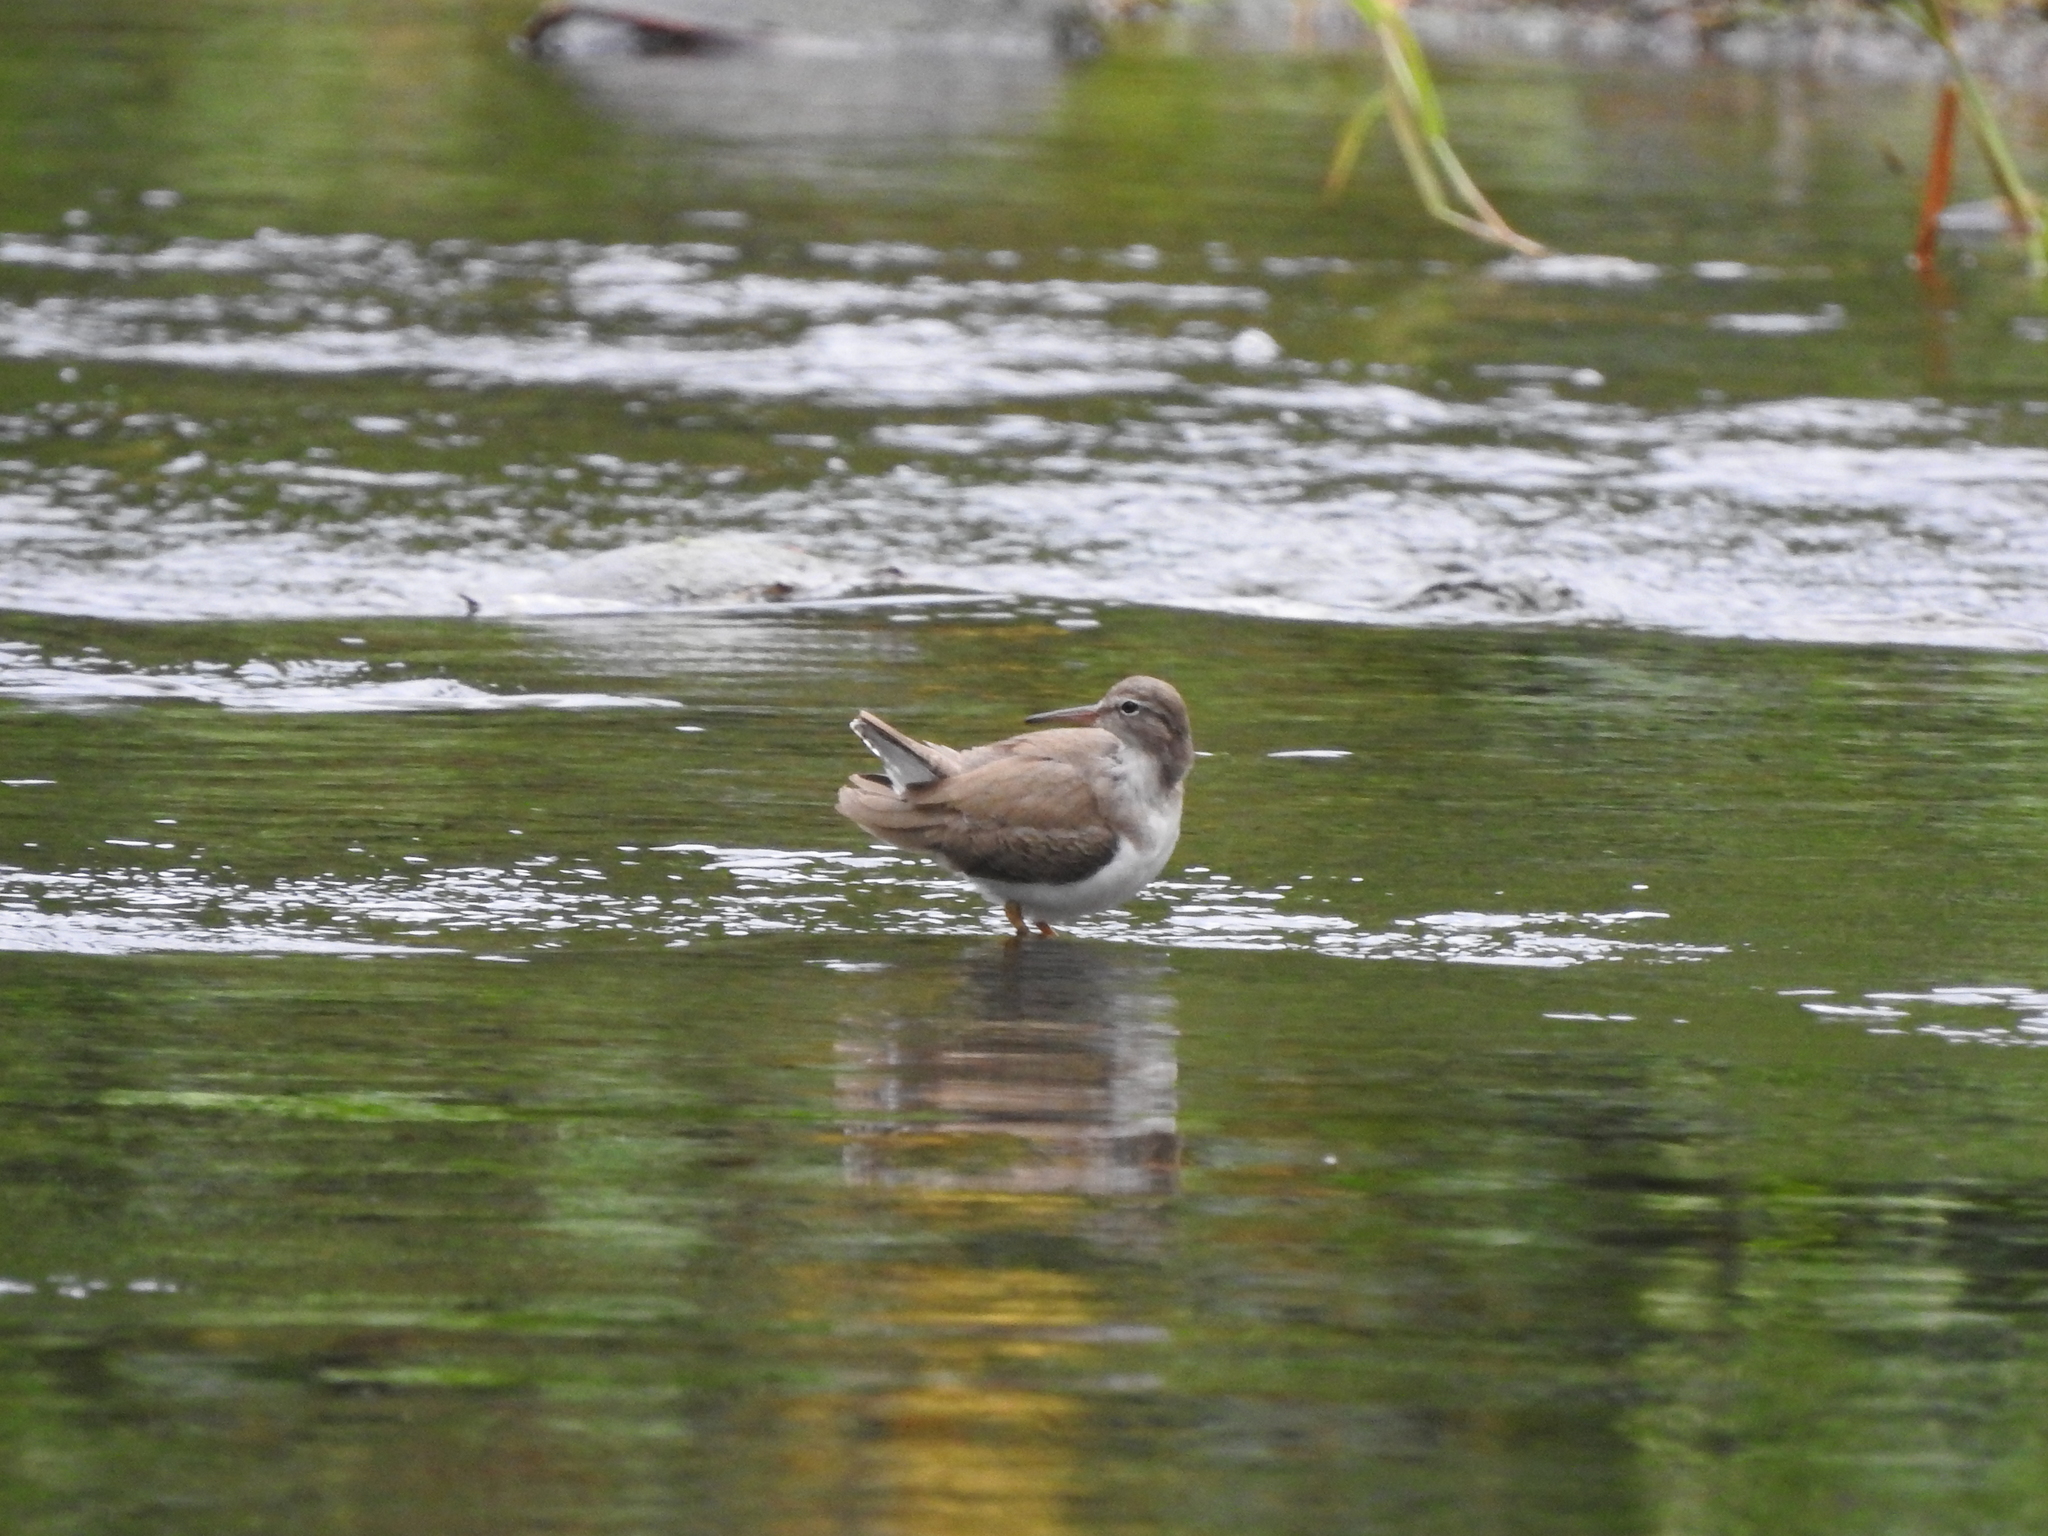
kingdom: Animalia
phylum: Chordata
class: Aves
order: Charadriiformes
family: Scolopacidae
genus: Actitis
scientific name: Actitis macularius
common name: Spotted sandpiper
